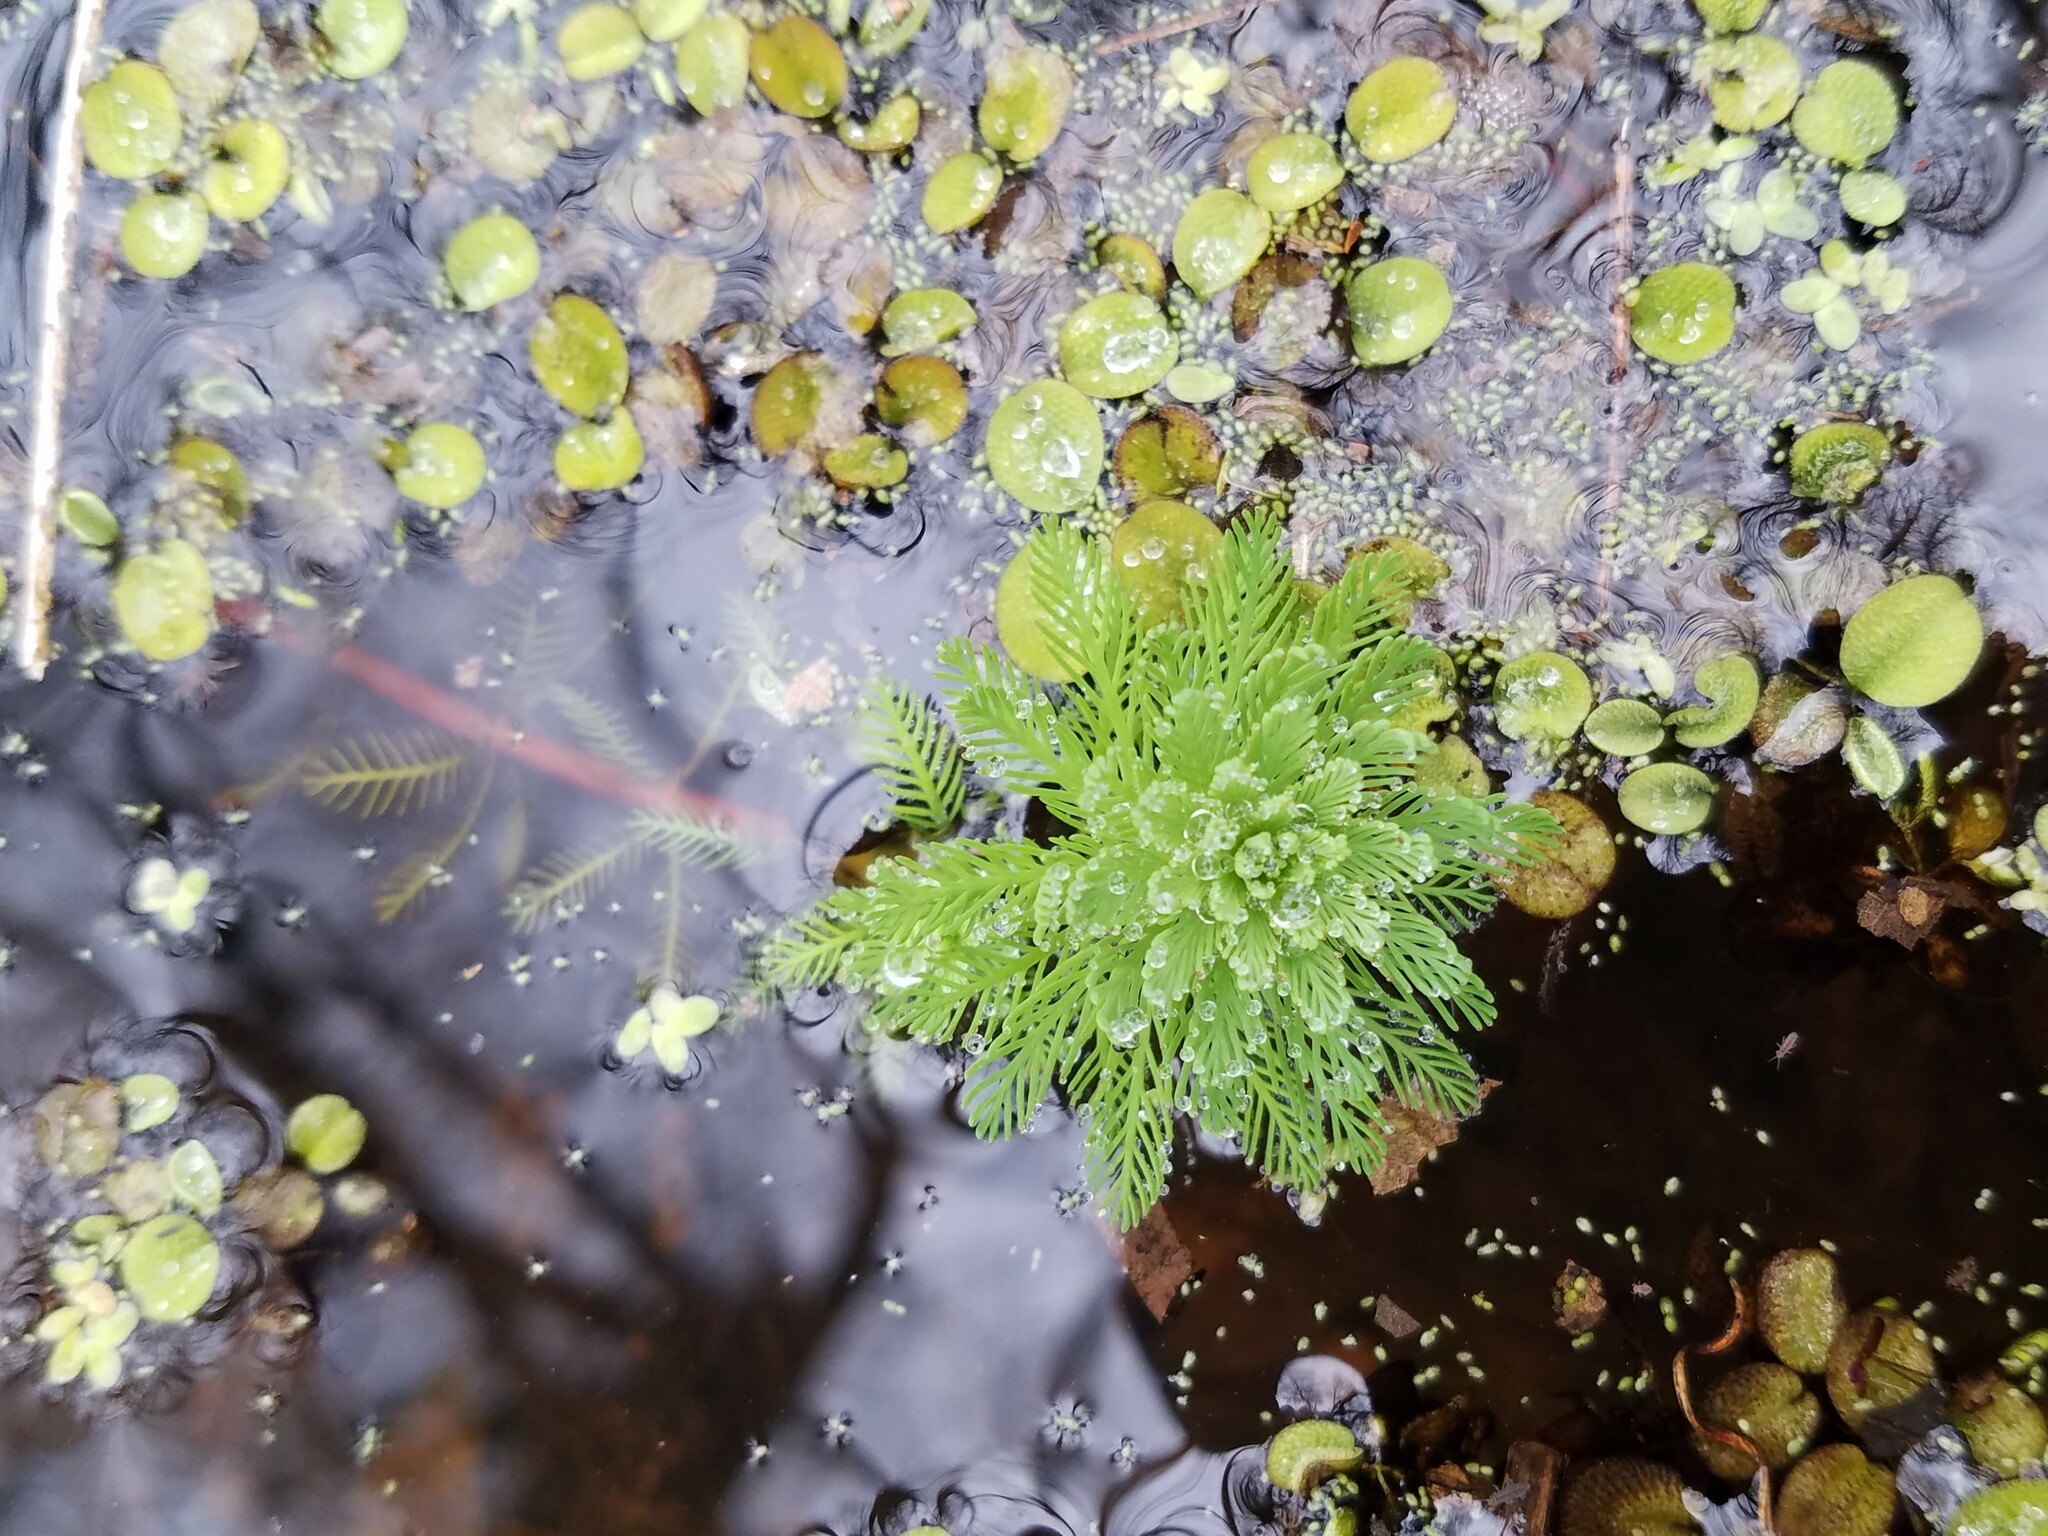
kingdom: Plantae
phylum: Tracheophyta
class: Magnoliopsida
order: Saxifragales
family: Haloragaceae
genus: Myriophyllum
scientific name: Myriophyllum aquaticum
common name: Parrot's feather
